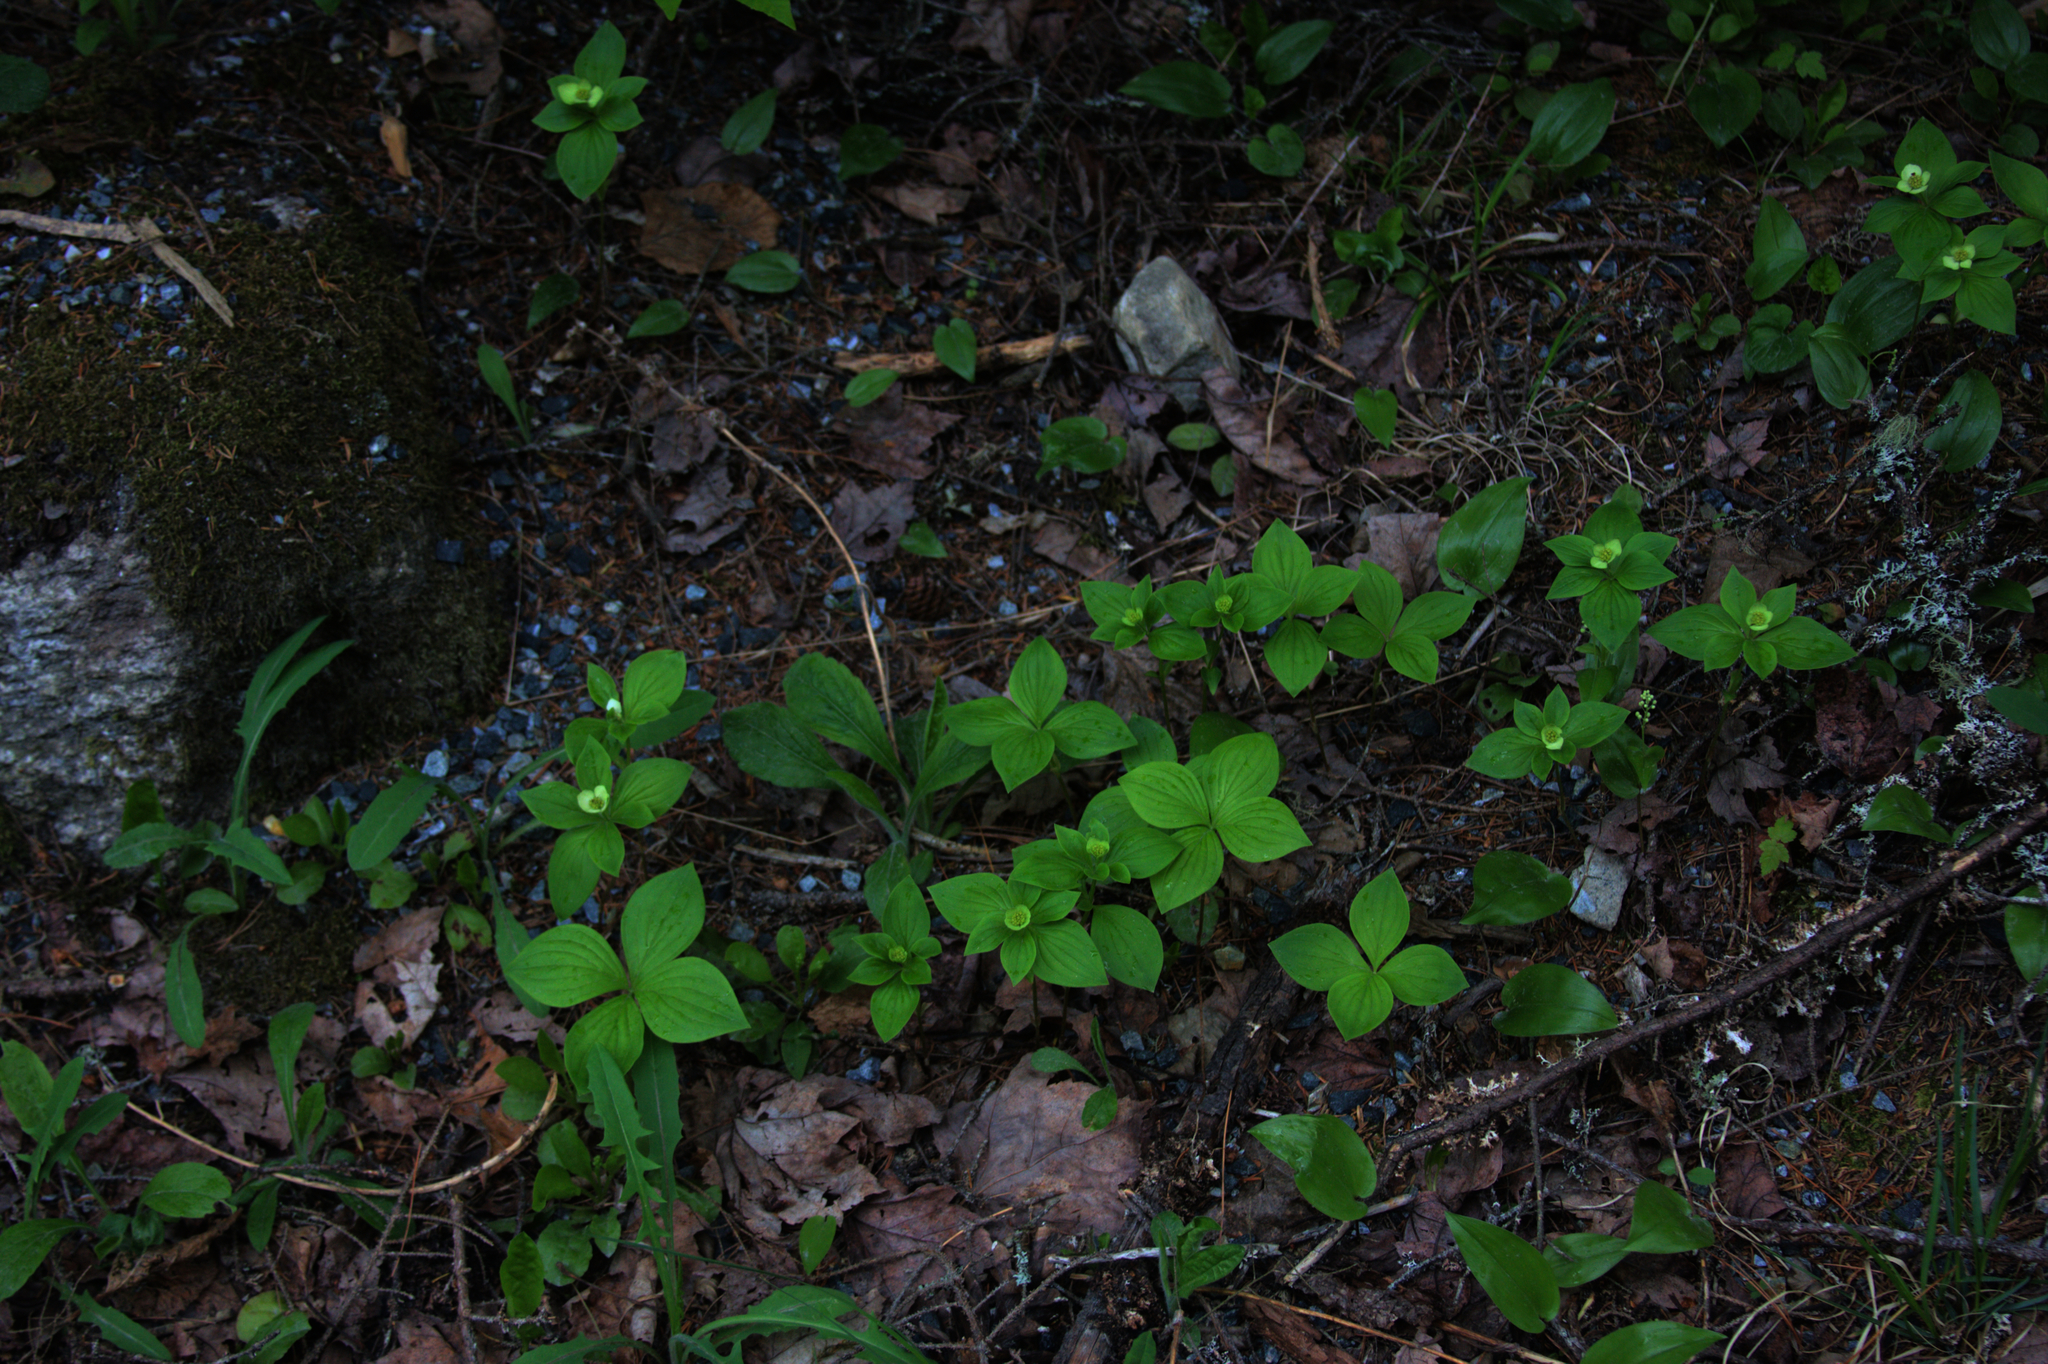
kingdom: Plantae
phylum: Tracheophyta
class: Magnoliopsida
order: Cornales
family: Cornaceae
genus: Cornus
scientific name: Cornus canadensis
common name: Creeping dogwood
